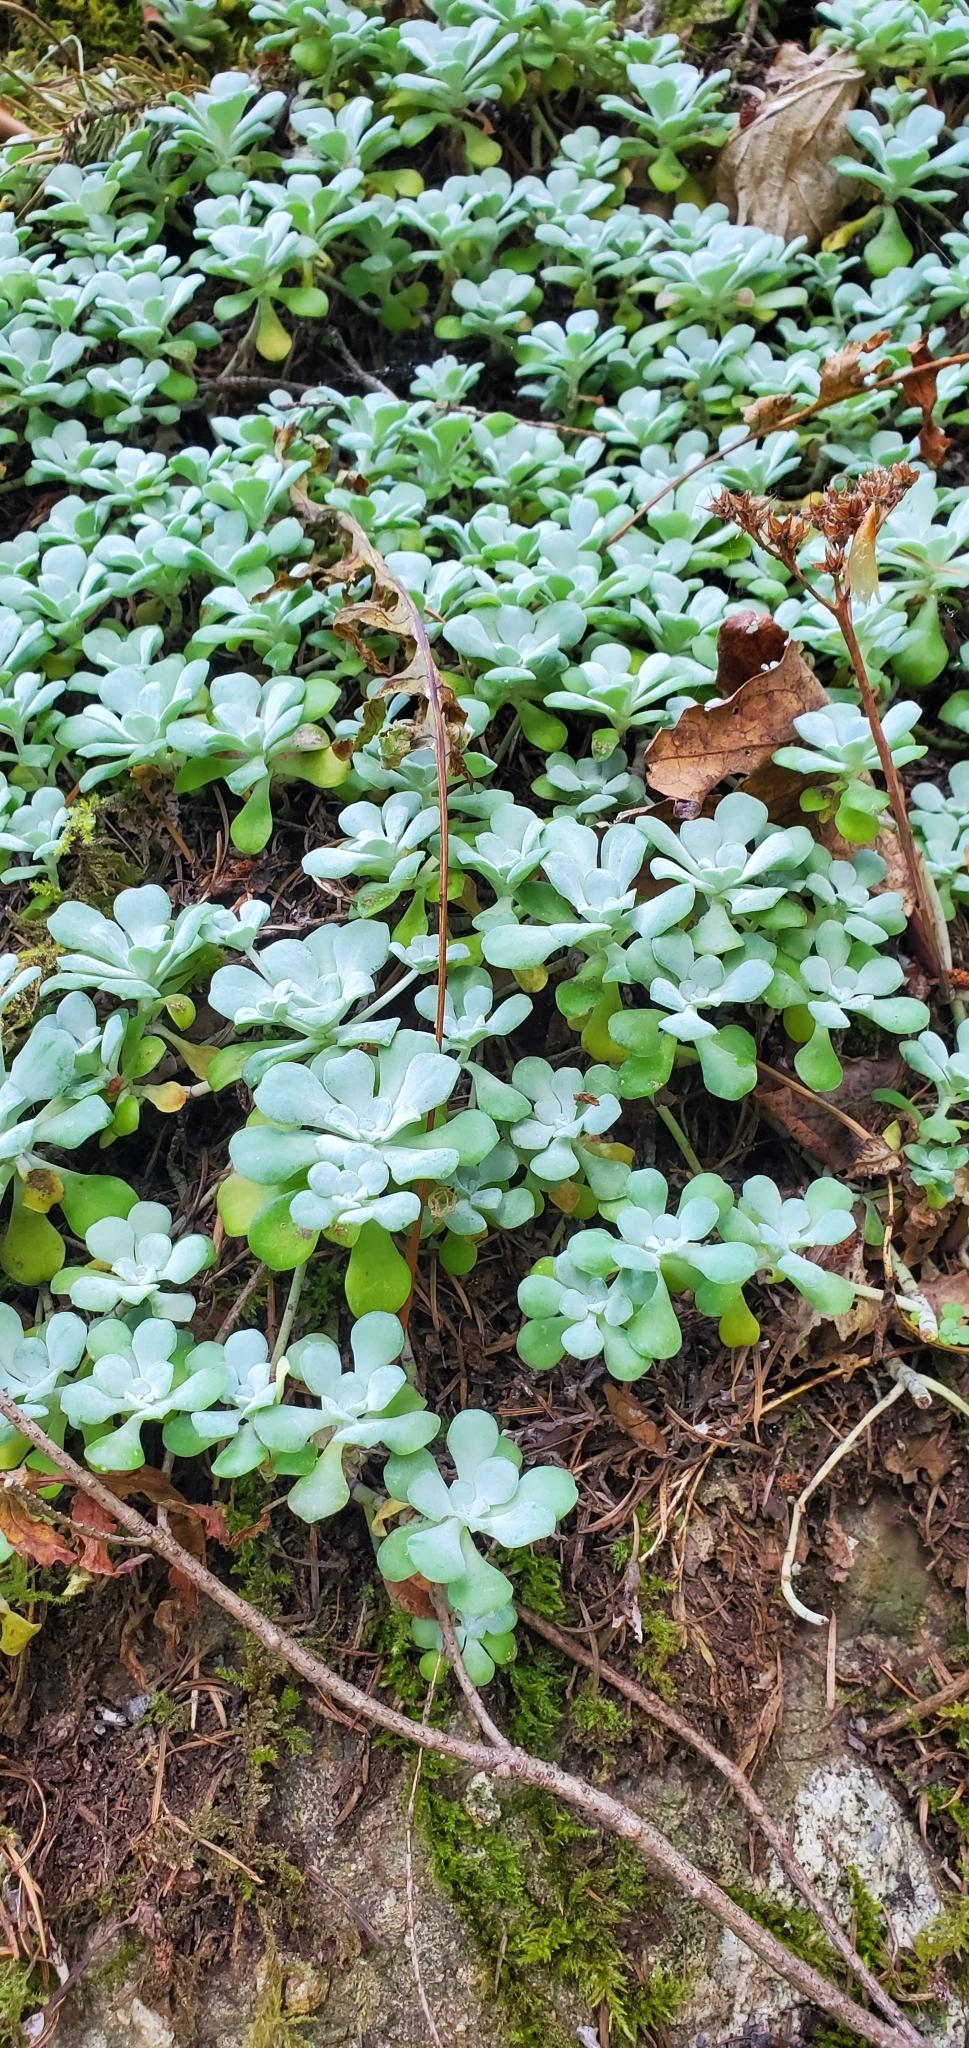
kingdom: Plantae
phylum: Tracheophyta
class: Magnoliopsida
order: Saxifragales
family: Crassulaceae
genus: Sedum
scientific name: Sedum spathulifolium
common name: Colorado stonecrop
